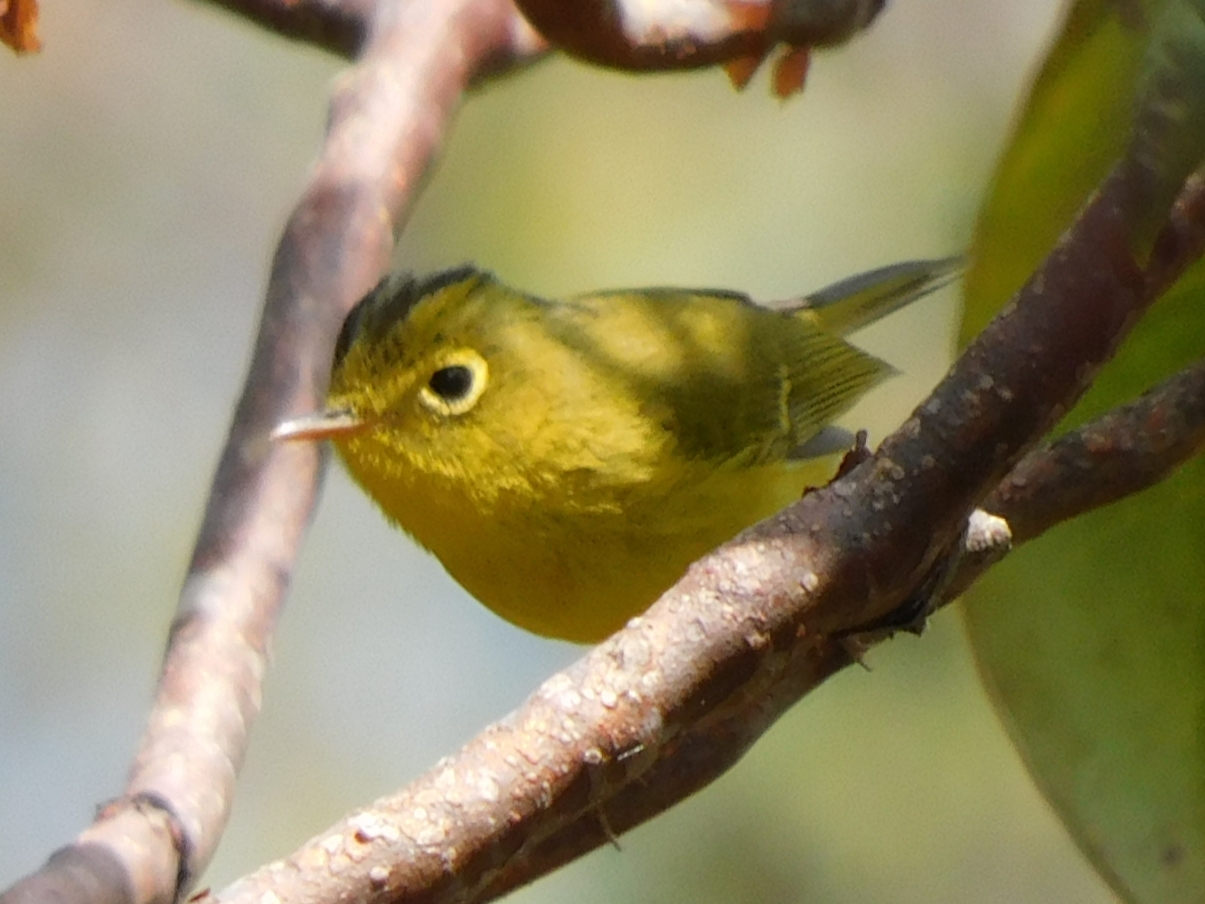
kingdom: Animalia
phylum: Chordata
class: Aves
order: Passeriformes
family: Phylloscopidae
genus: Seicercus
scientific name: Seicercus whistleri
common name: Whistler's warbler
